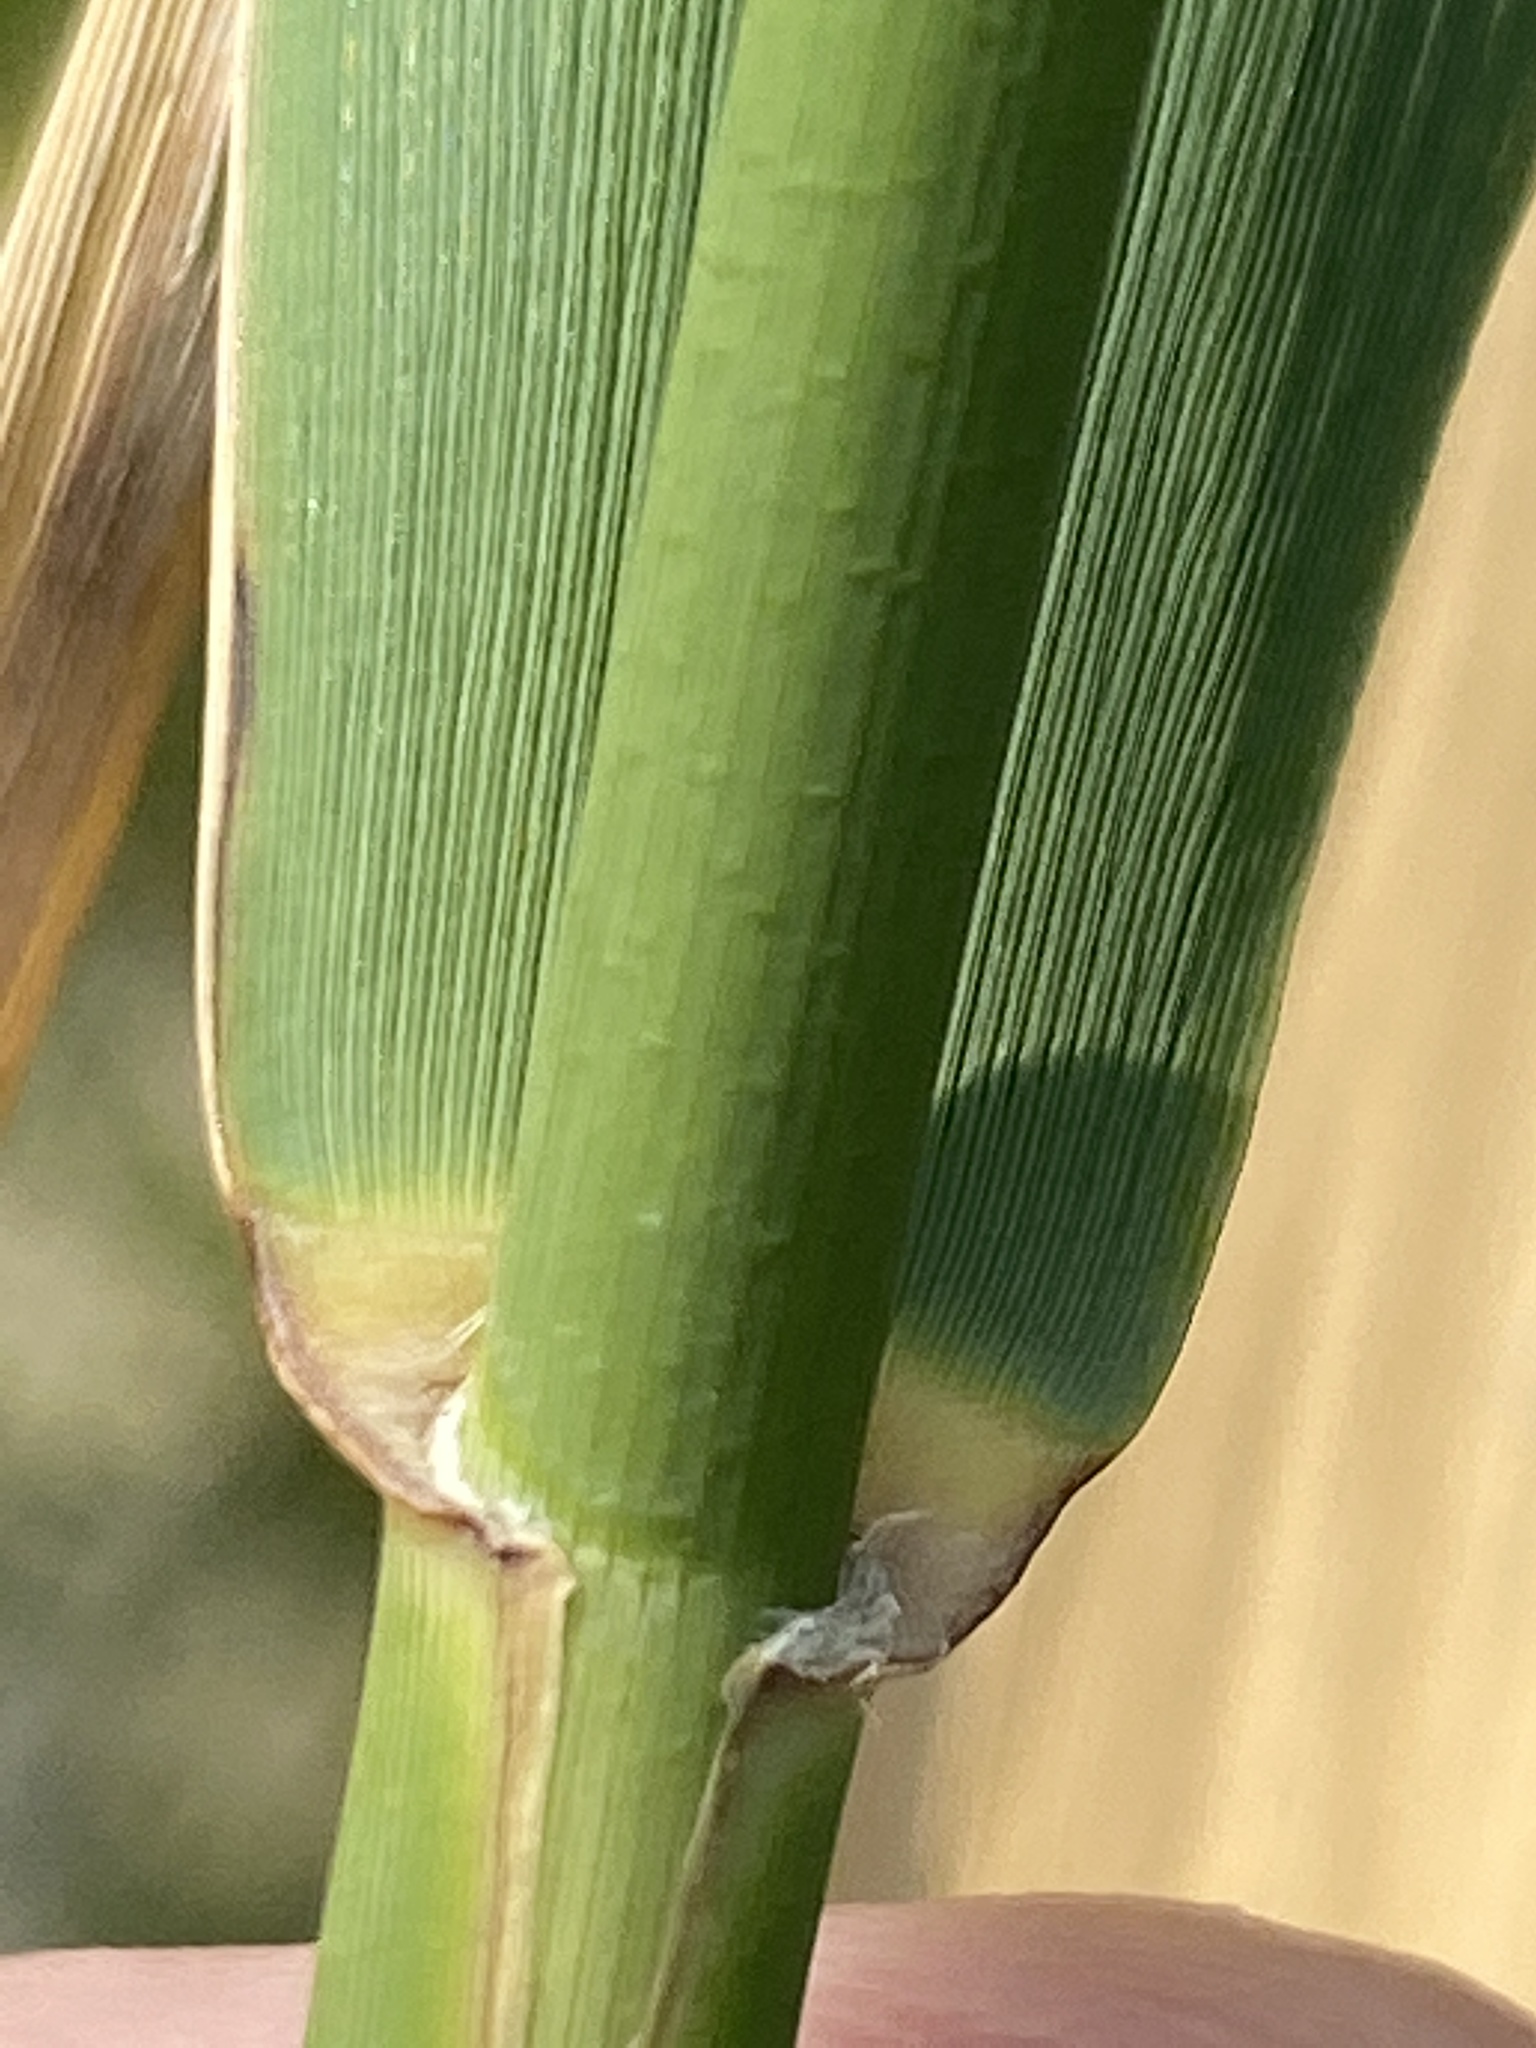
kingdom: Plantae
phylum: Tracheophyta
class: Liliopsida
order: Poales
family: Poaceae
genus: Phragmites
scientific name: Phragmites australis
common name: Common reed
